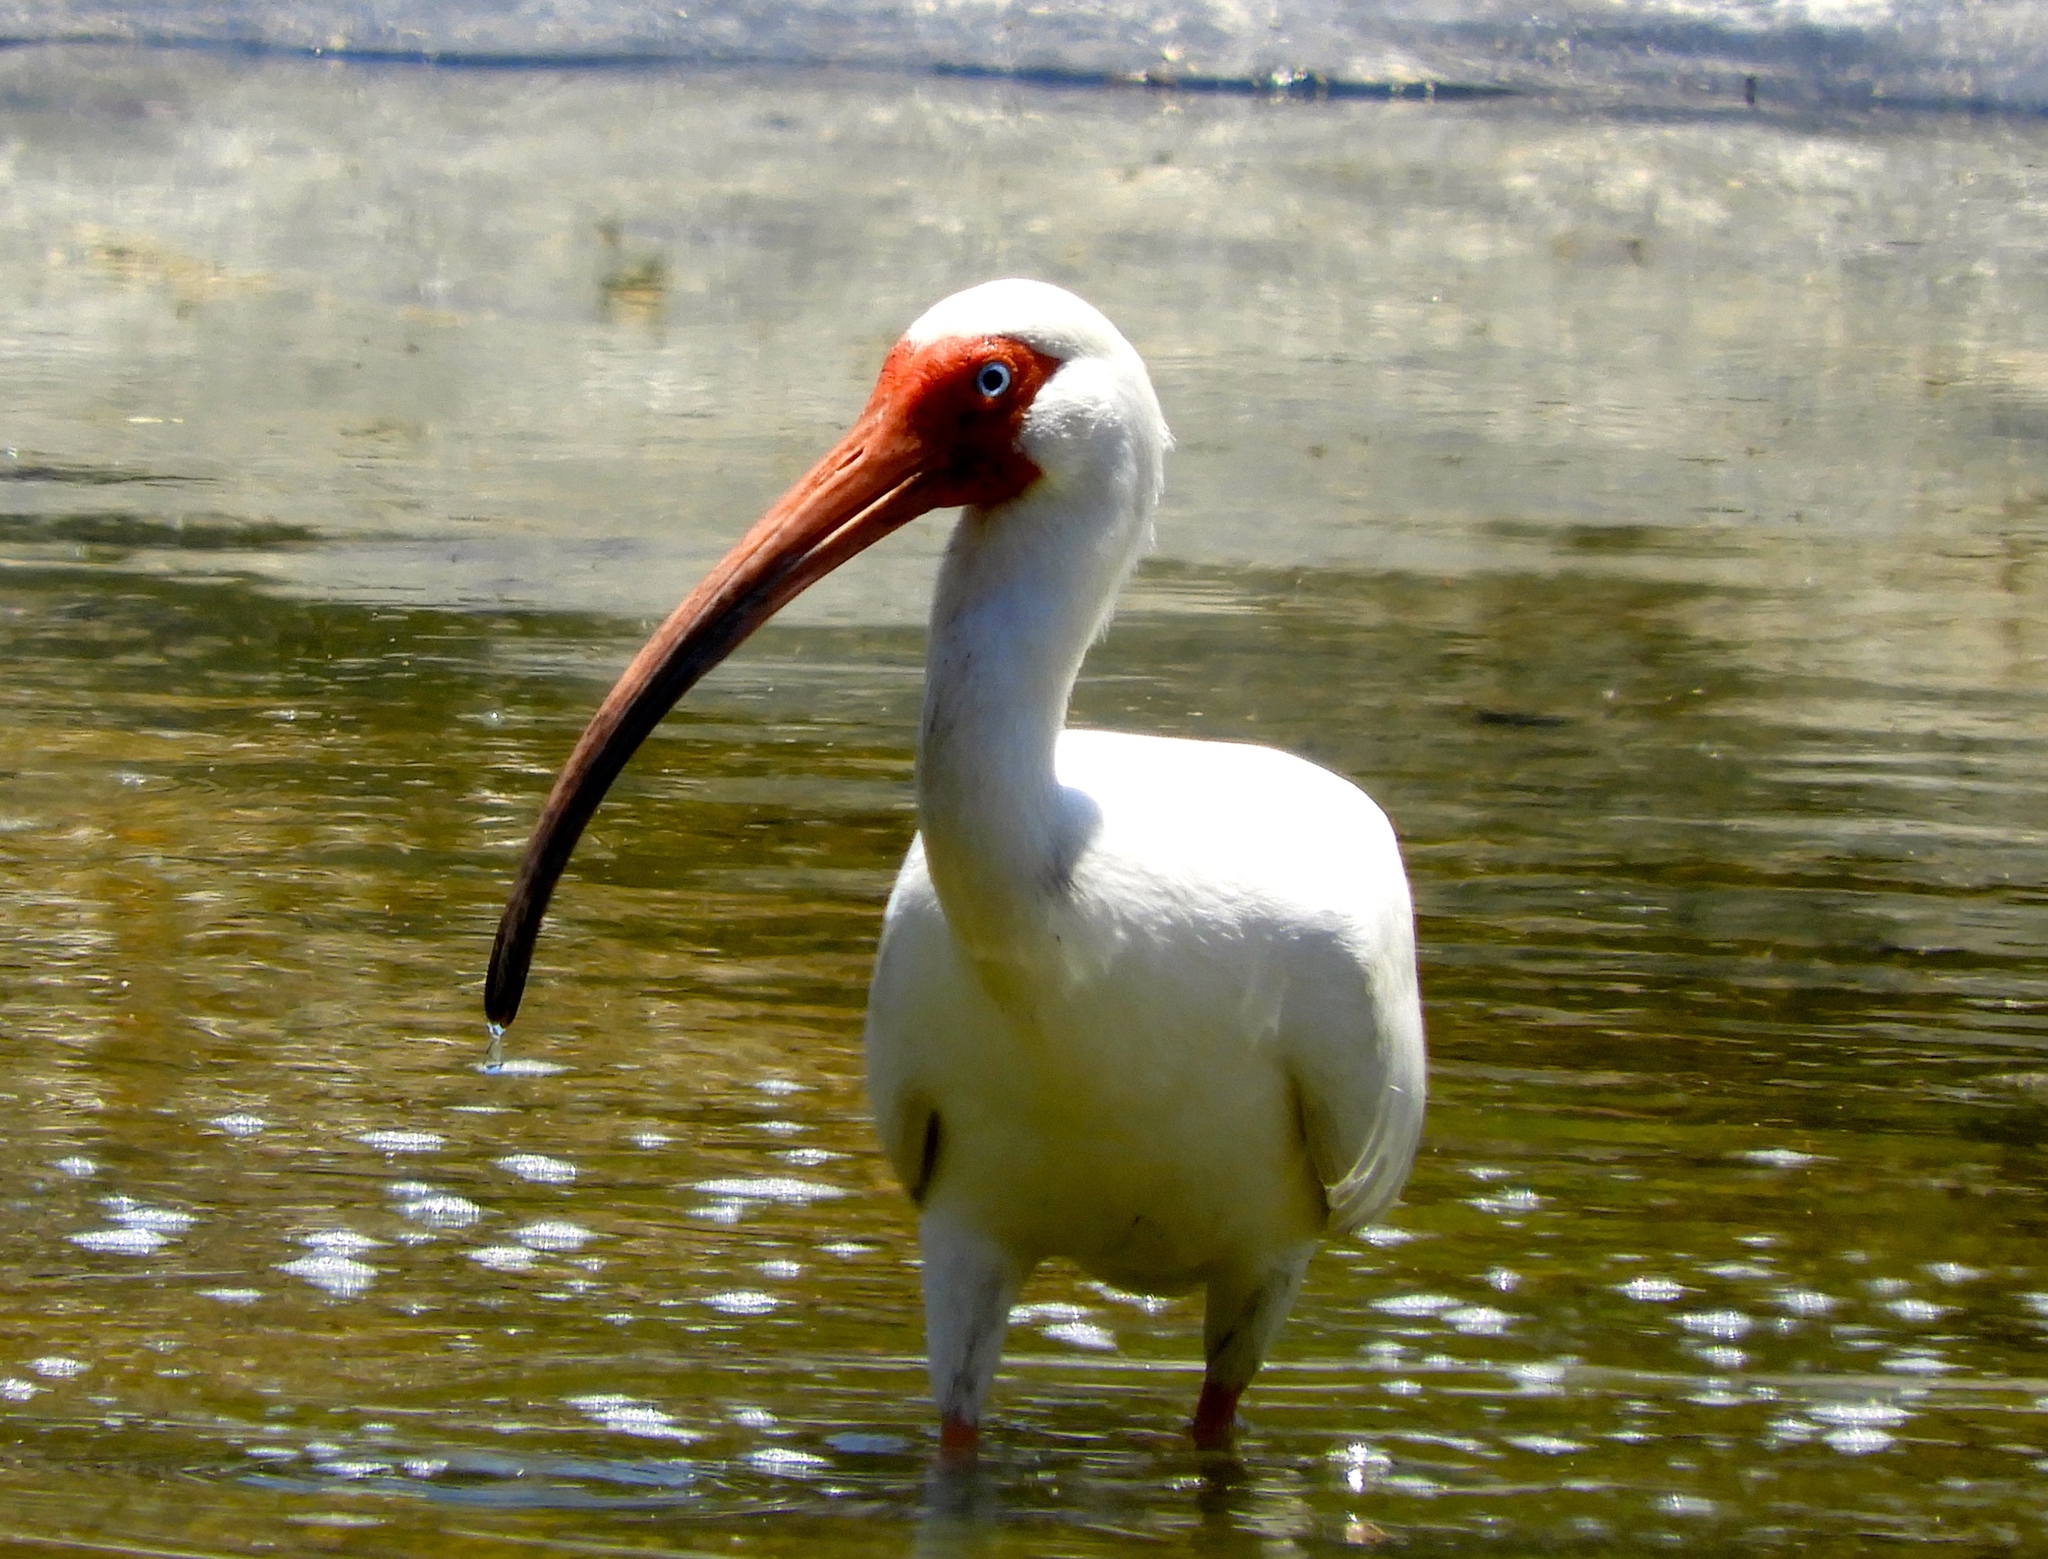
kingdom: Animalia
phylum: Chordata
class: Aves
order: Pelecaniformes
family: Threskiornithidae
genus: Eudocimus
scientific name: Eudocimus albus
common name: White ibis
